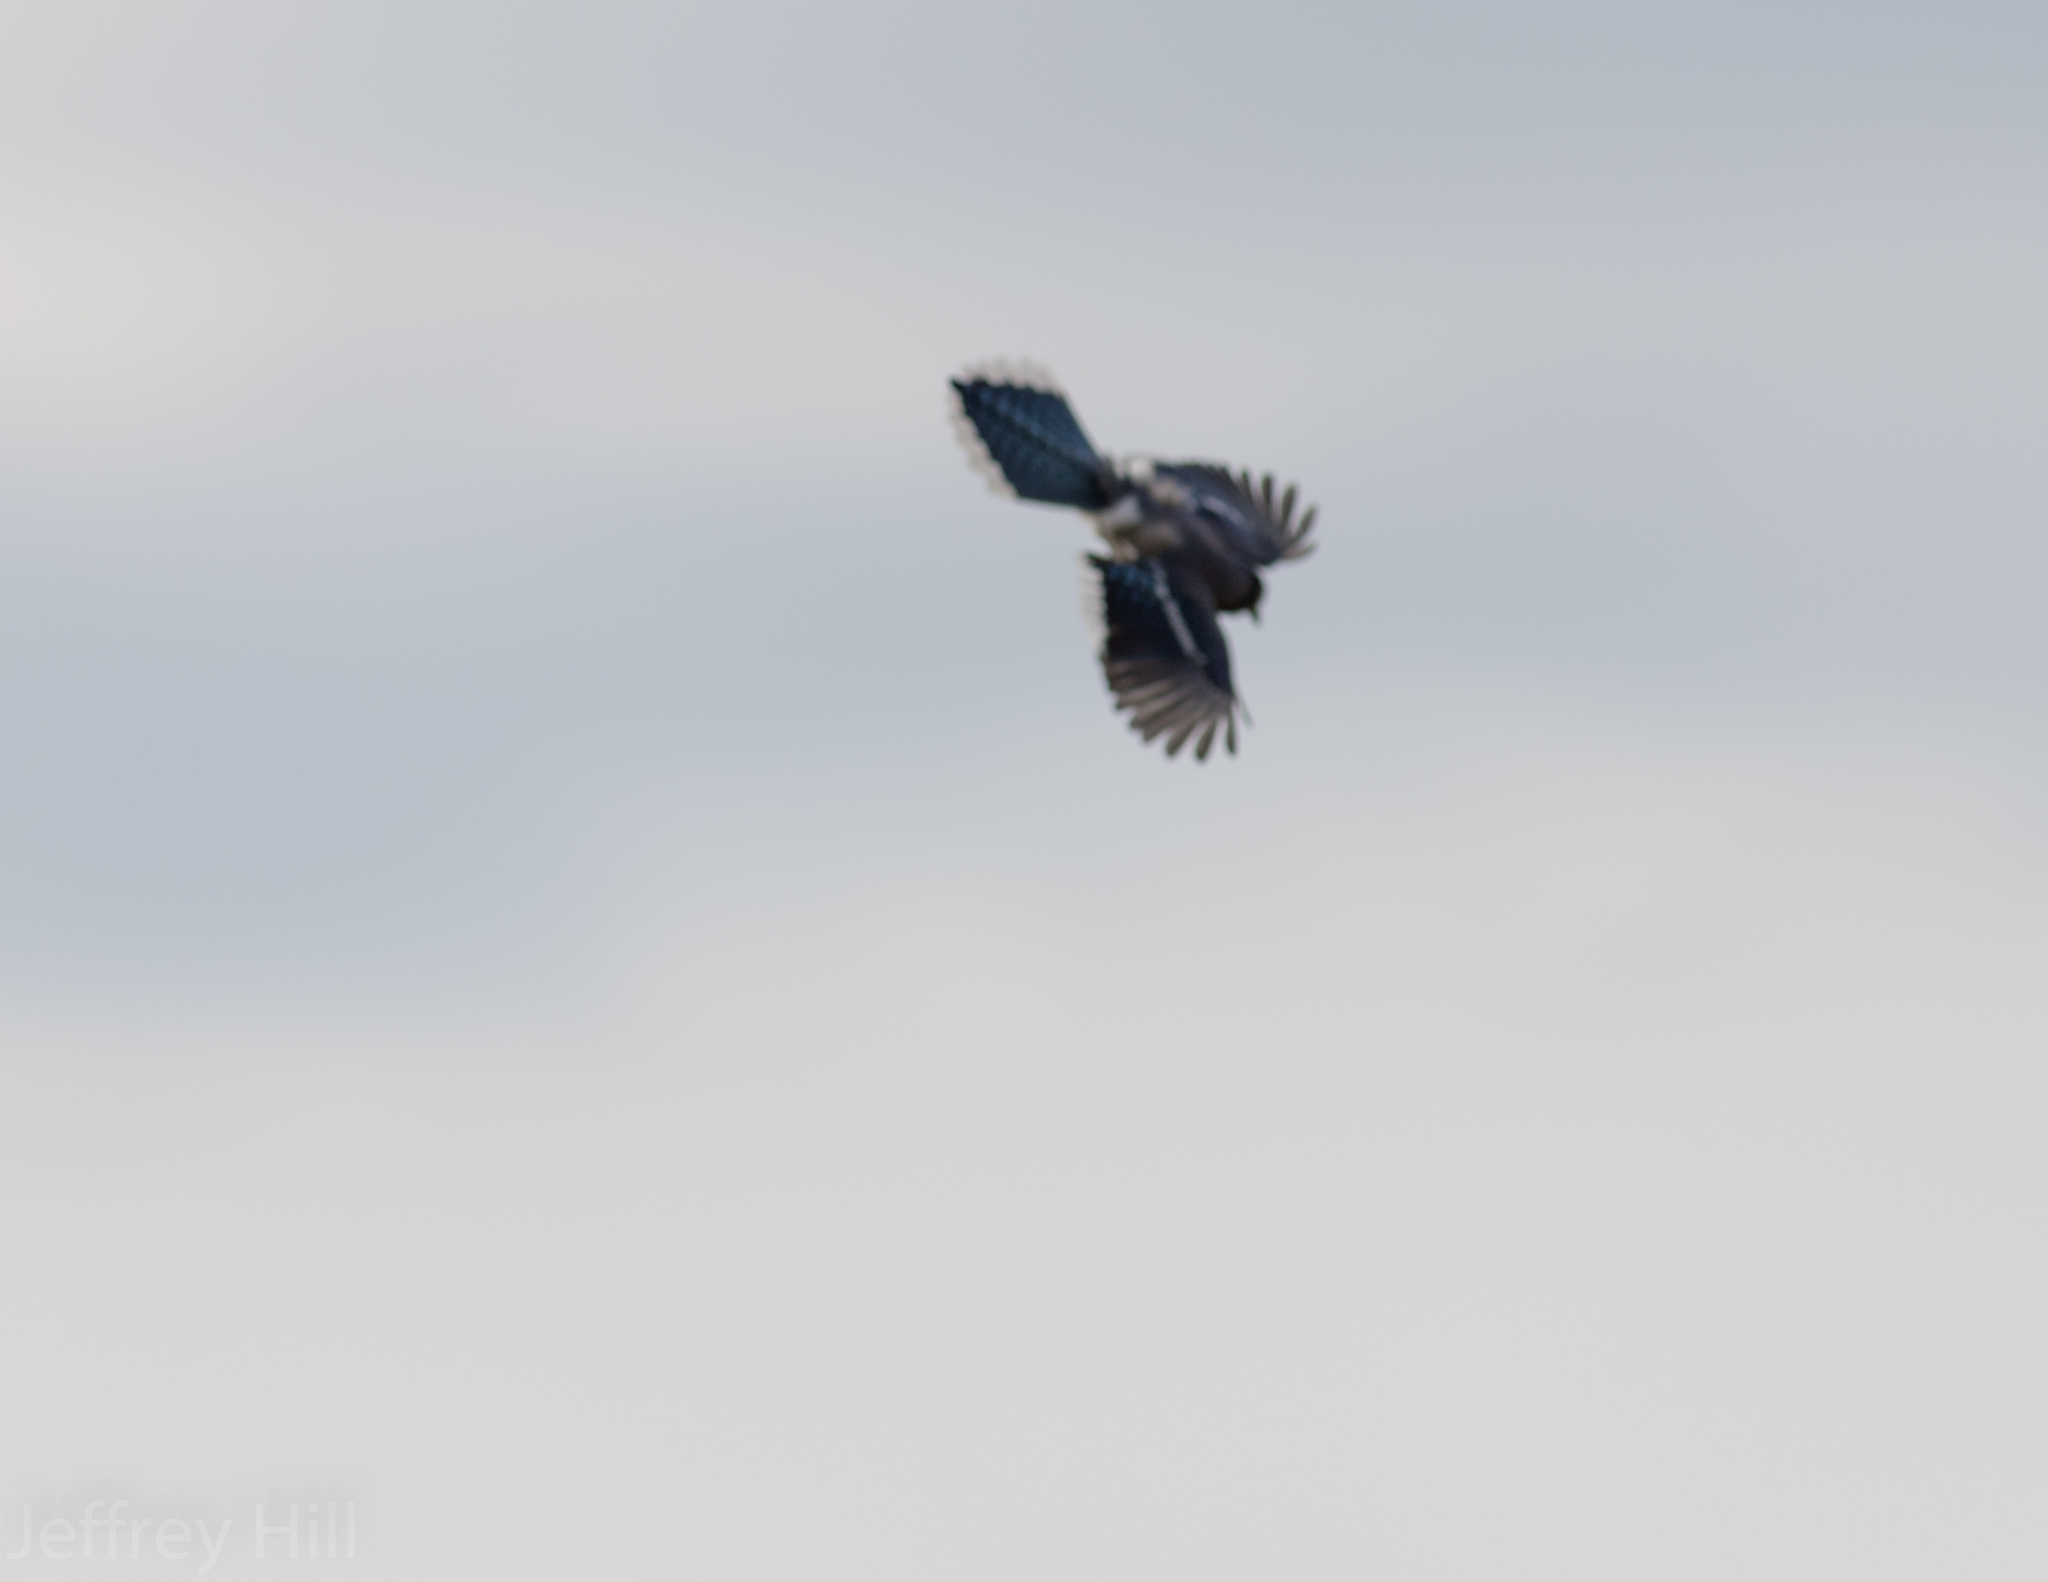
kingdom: Animalia
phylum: Chordata
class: Aves
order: Passeriformes
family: Corvidae
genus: Cyanocitta
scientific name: Cyanocitta cristata
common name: Blue jay
